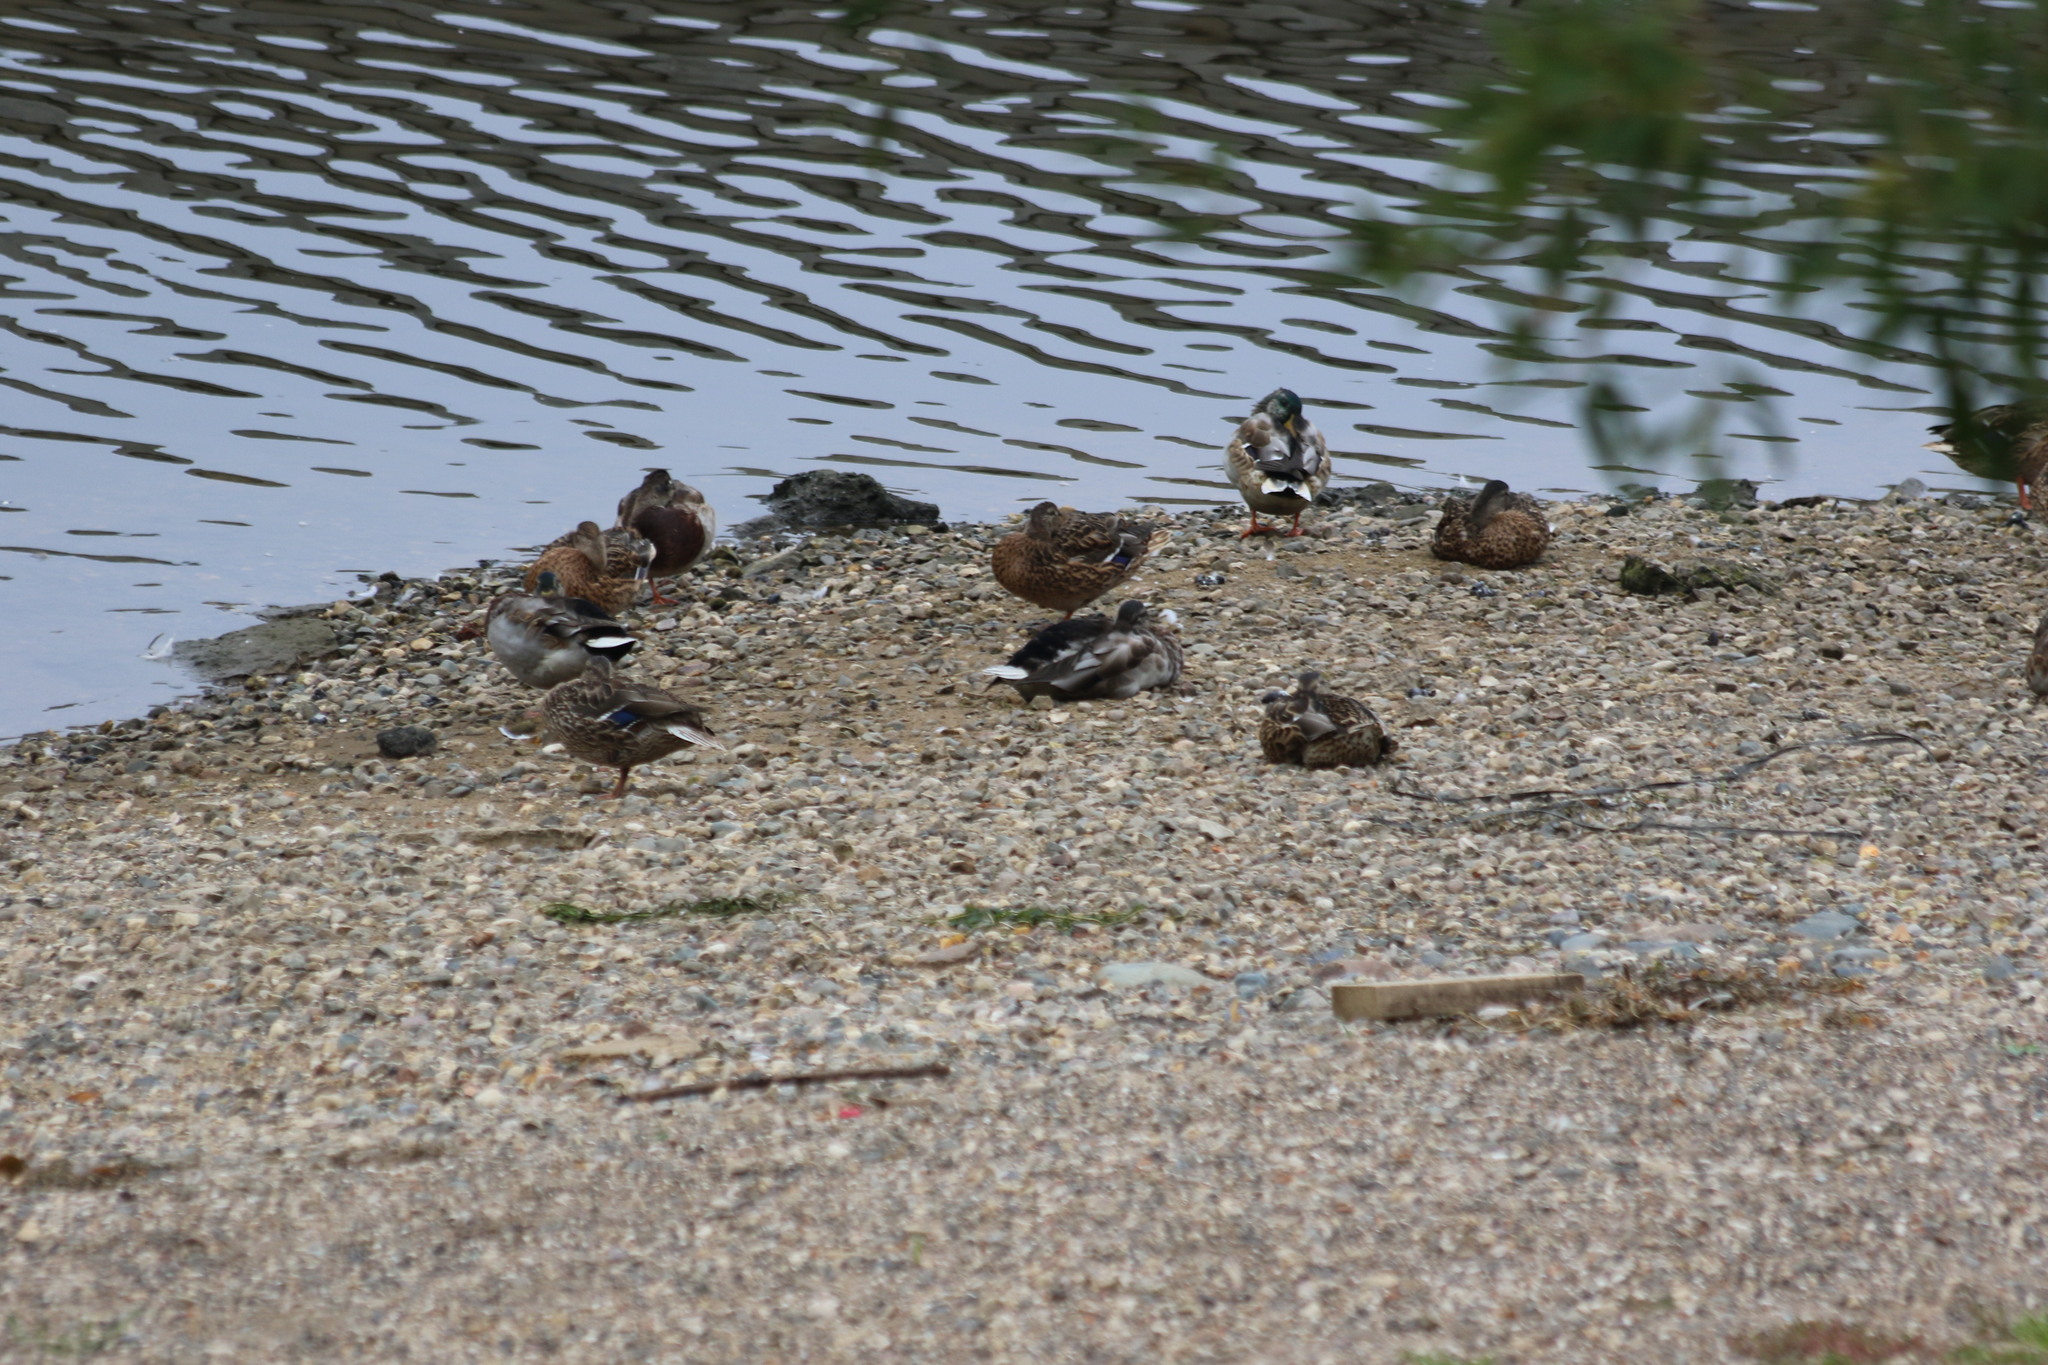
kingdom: Animalia
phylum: Chordata
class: Aves
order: Anseriformes
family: Anatidae
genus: Anas
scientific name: Anas platyrhynchos
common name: Mallard
